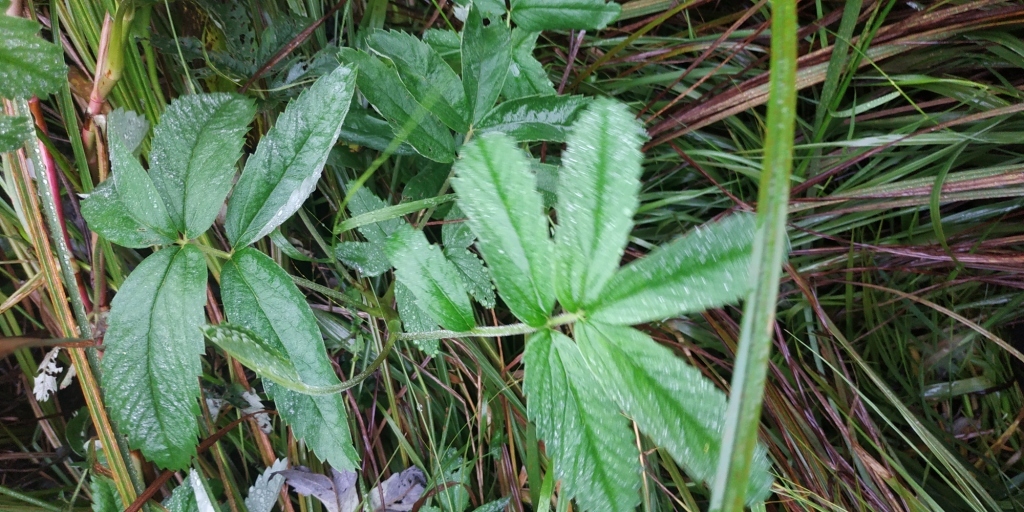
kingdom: Plantae
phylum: Tracheophyta
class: Magnoliopsida
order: Rosales
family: Rosaceae
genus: Comarum
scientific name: Comarum palustre
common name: Marsh cinquefoil
